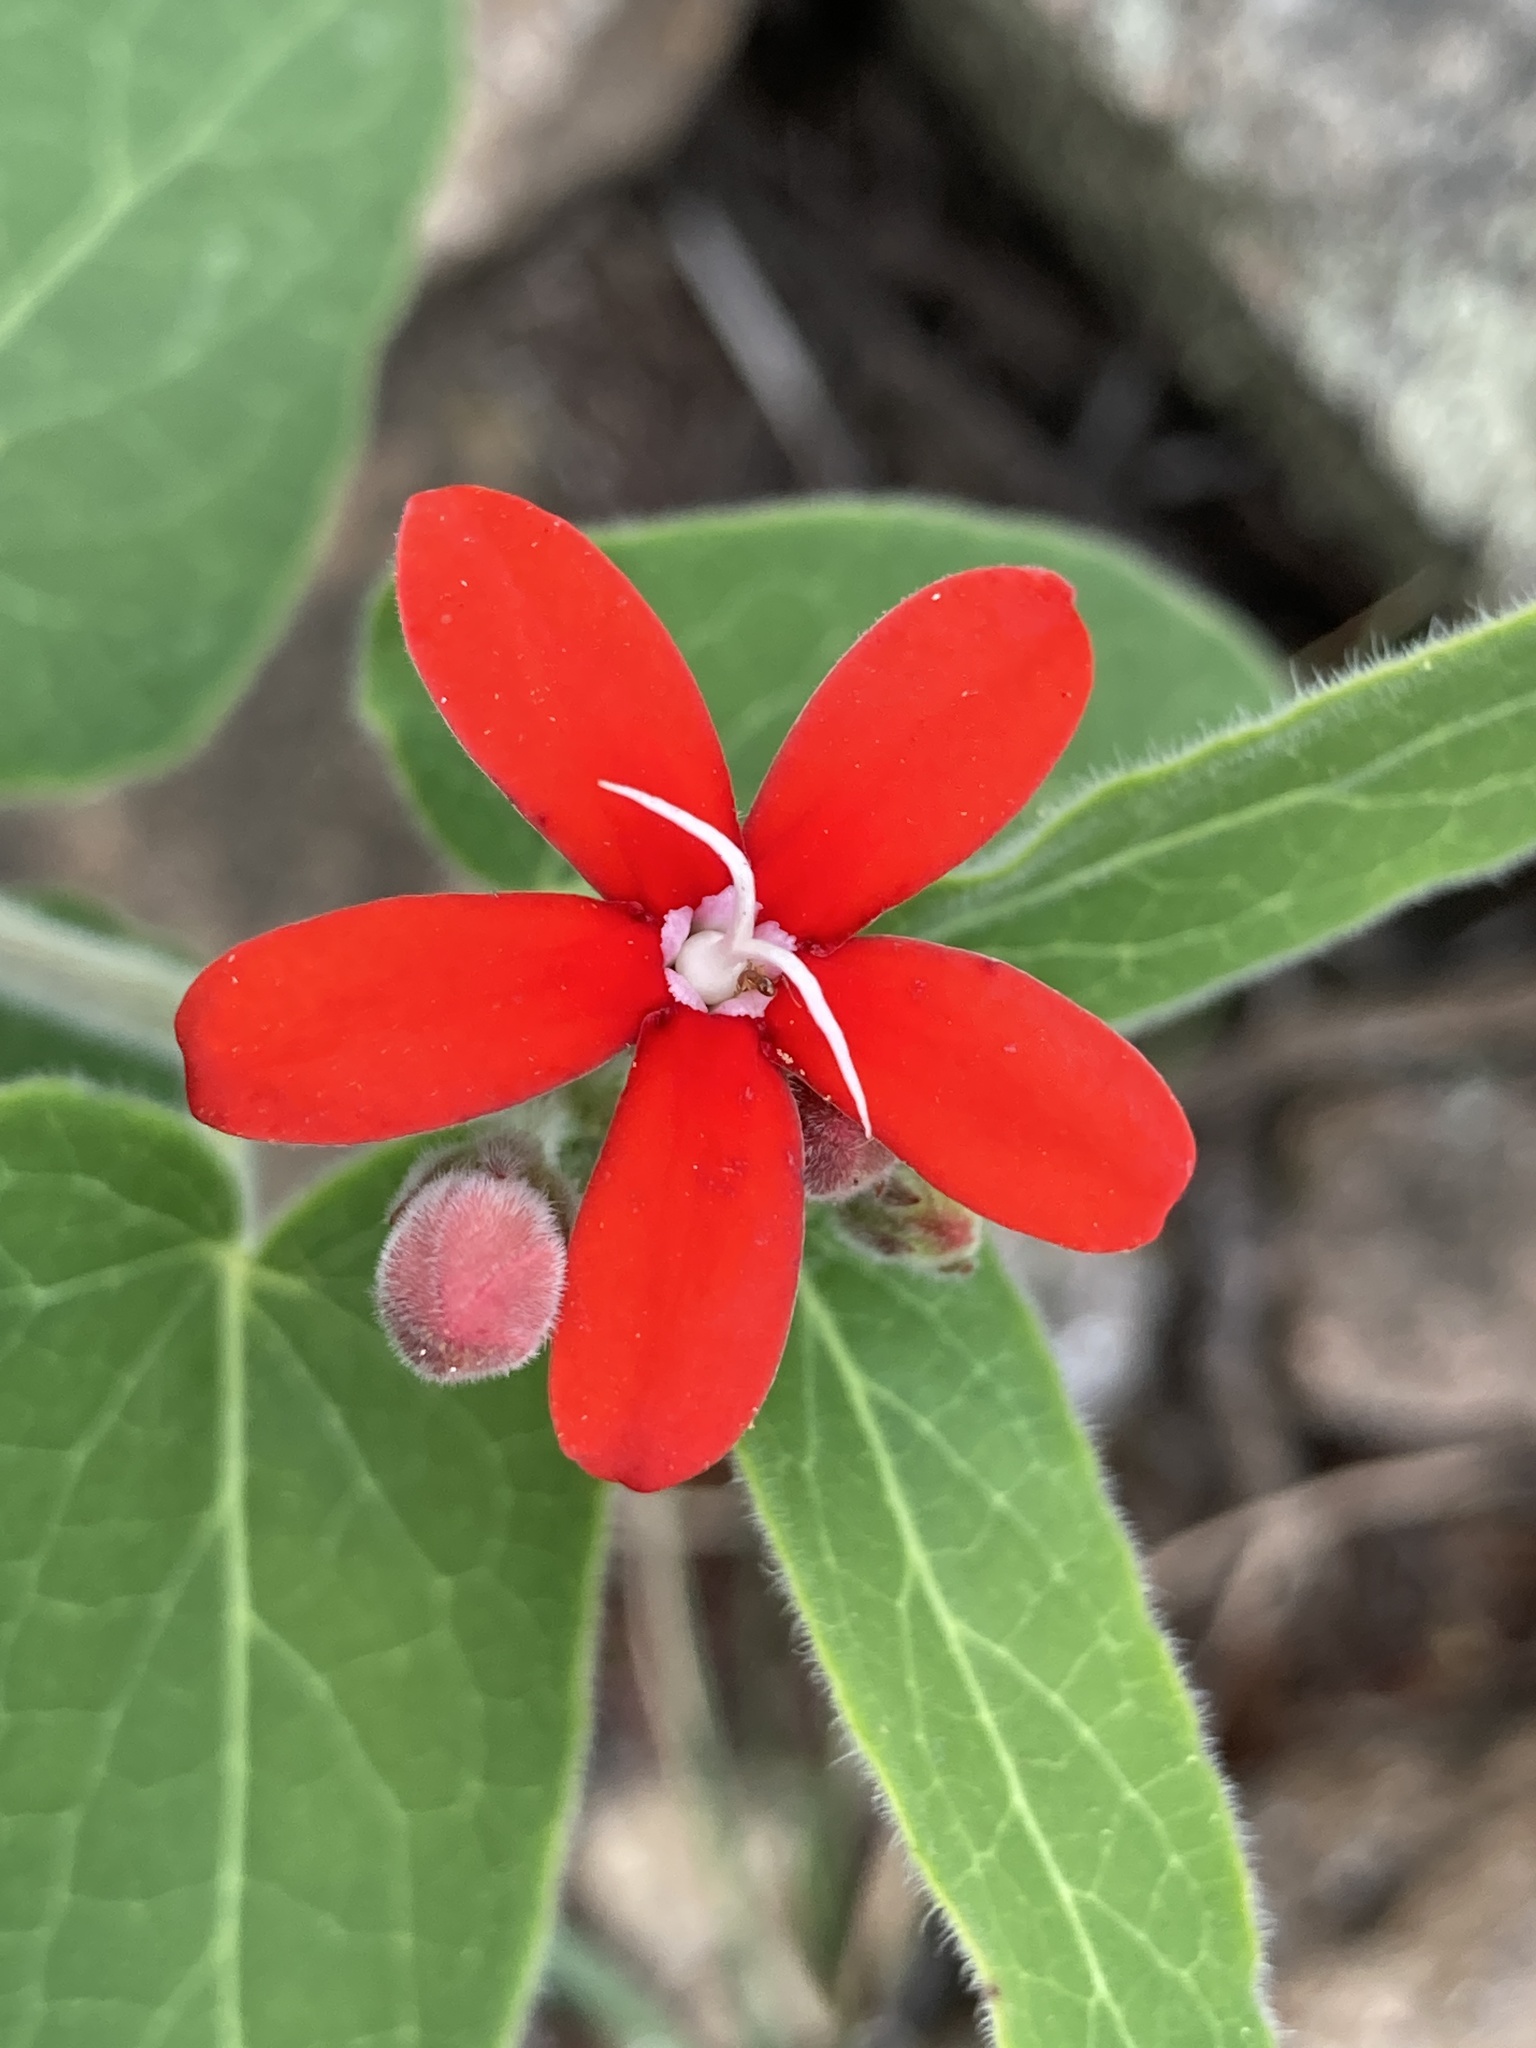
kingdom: Plantae
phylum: Tracheophyta
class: Magnoliopsida
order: Gentianales
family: Apocynaceae
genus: Oxypetalum
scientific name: Oxypetalum coccineum
